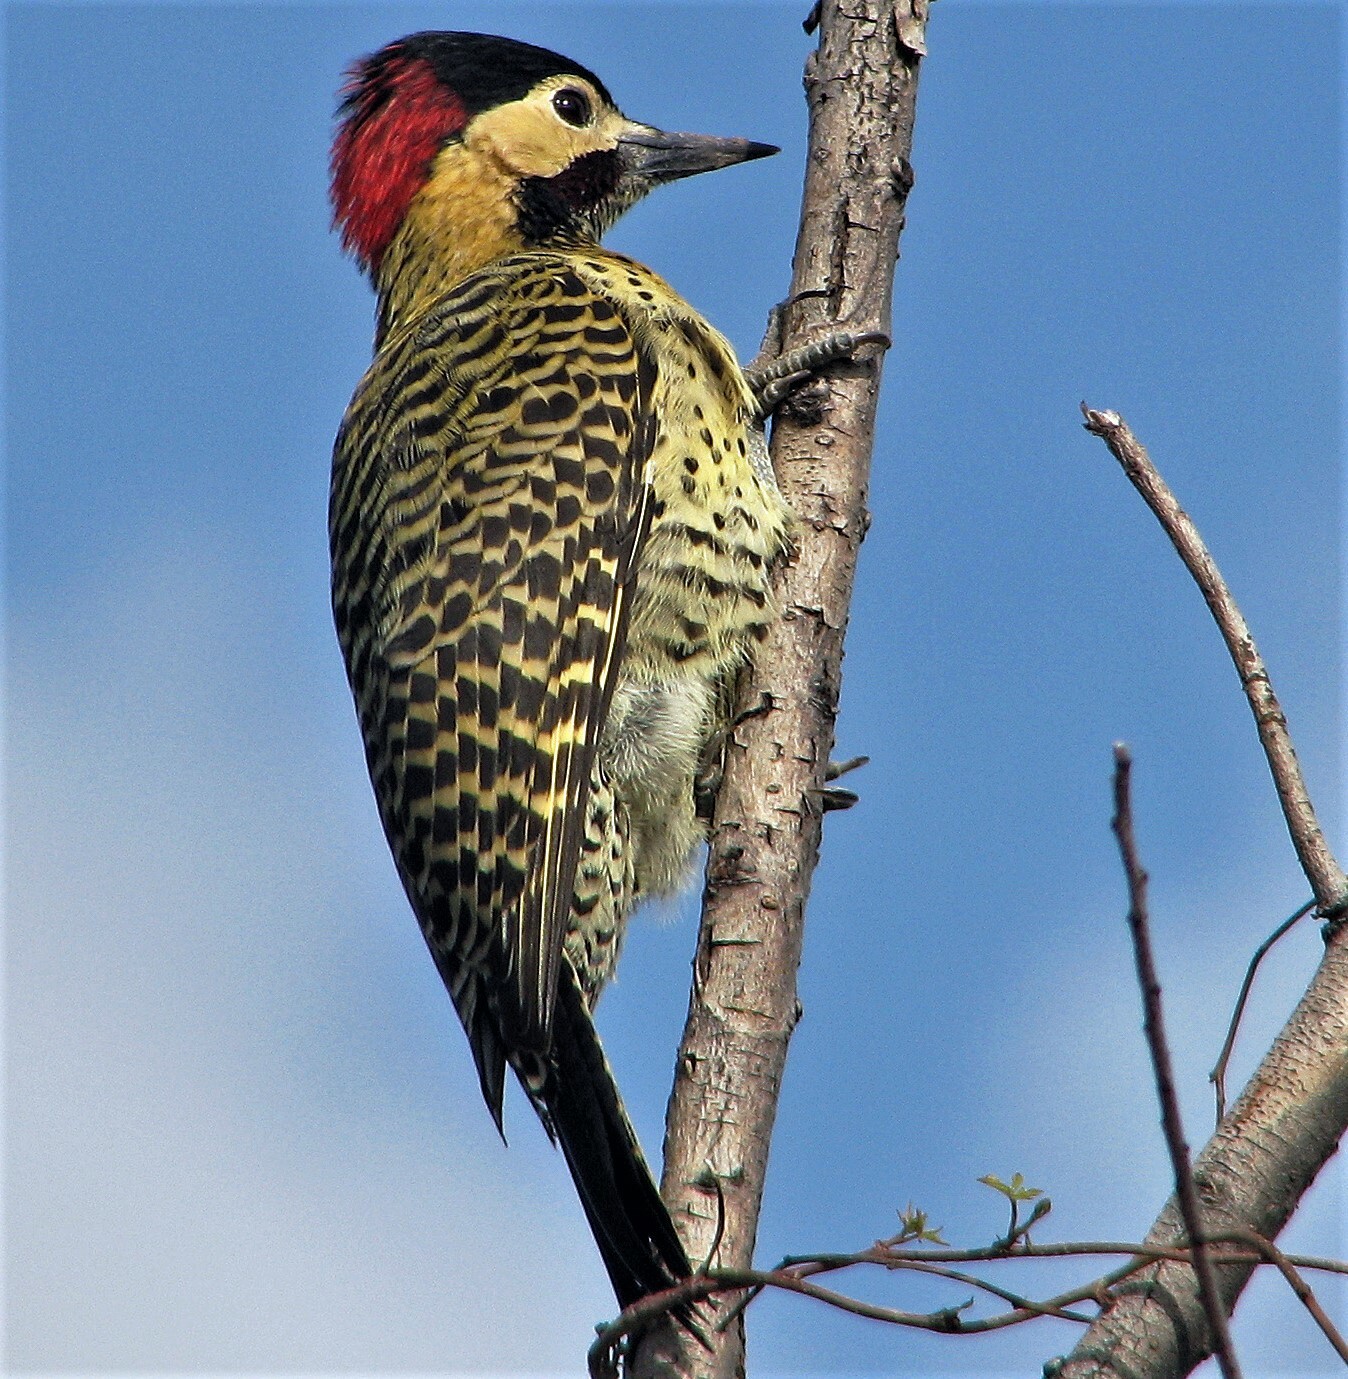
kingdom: Animalia
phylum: Chordata
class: Aves
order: Piciformes
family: Picidae
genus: Colaptes
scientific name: Colaptes melanochloros
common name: Green-barred woodpecker
